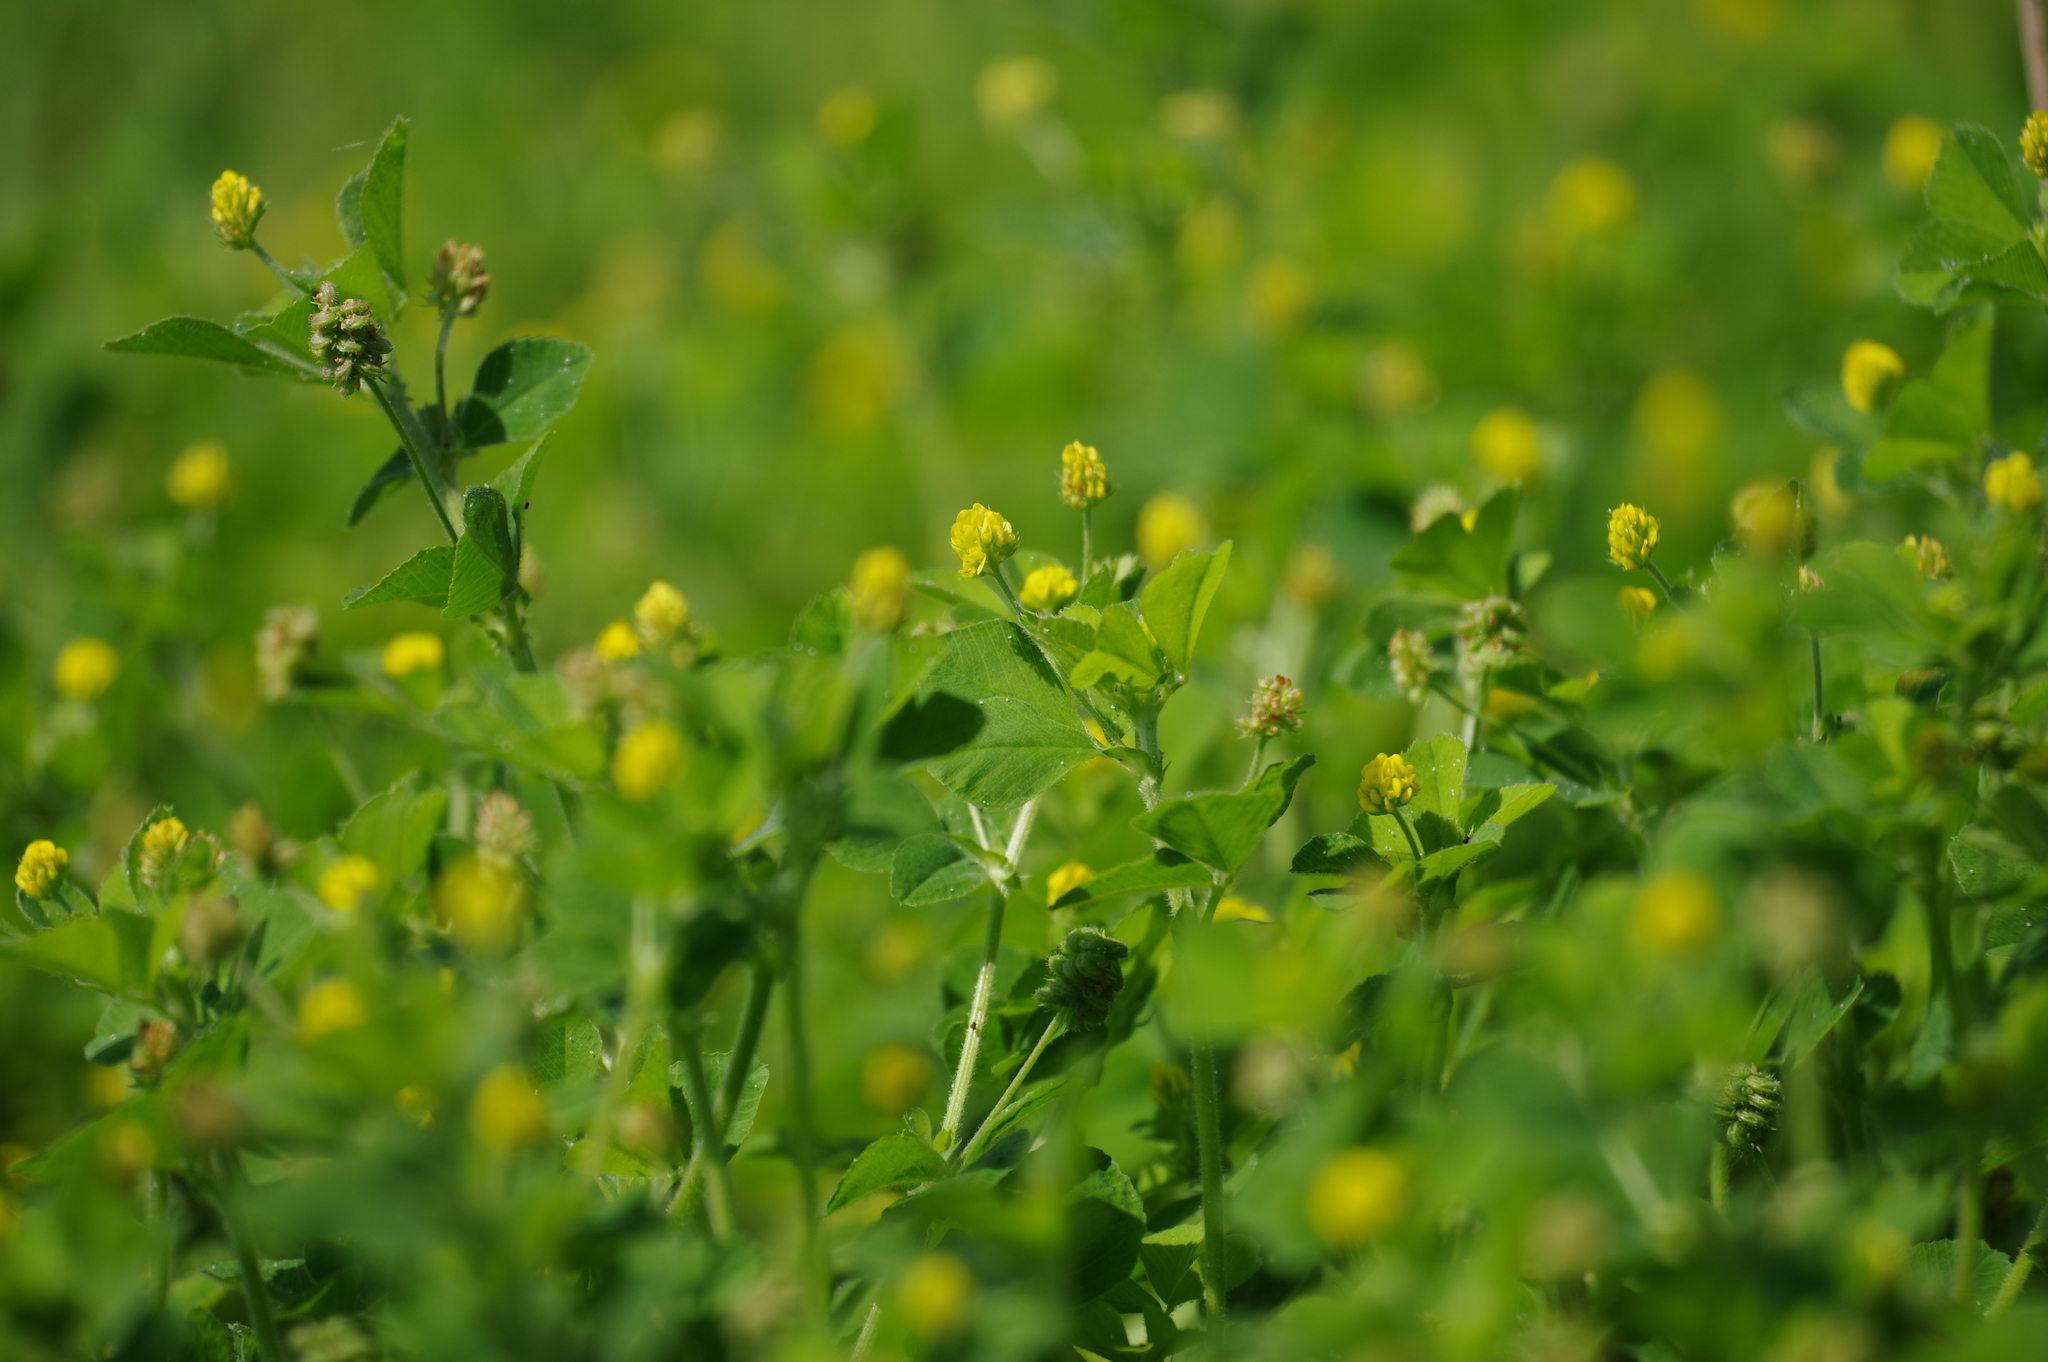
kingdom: Plantae
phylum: Tracheophyta
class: Magnoliopsida
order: Fabales
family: Fabaceae
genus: Medicago
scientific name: Medicago lupulina
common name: Black medick
